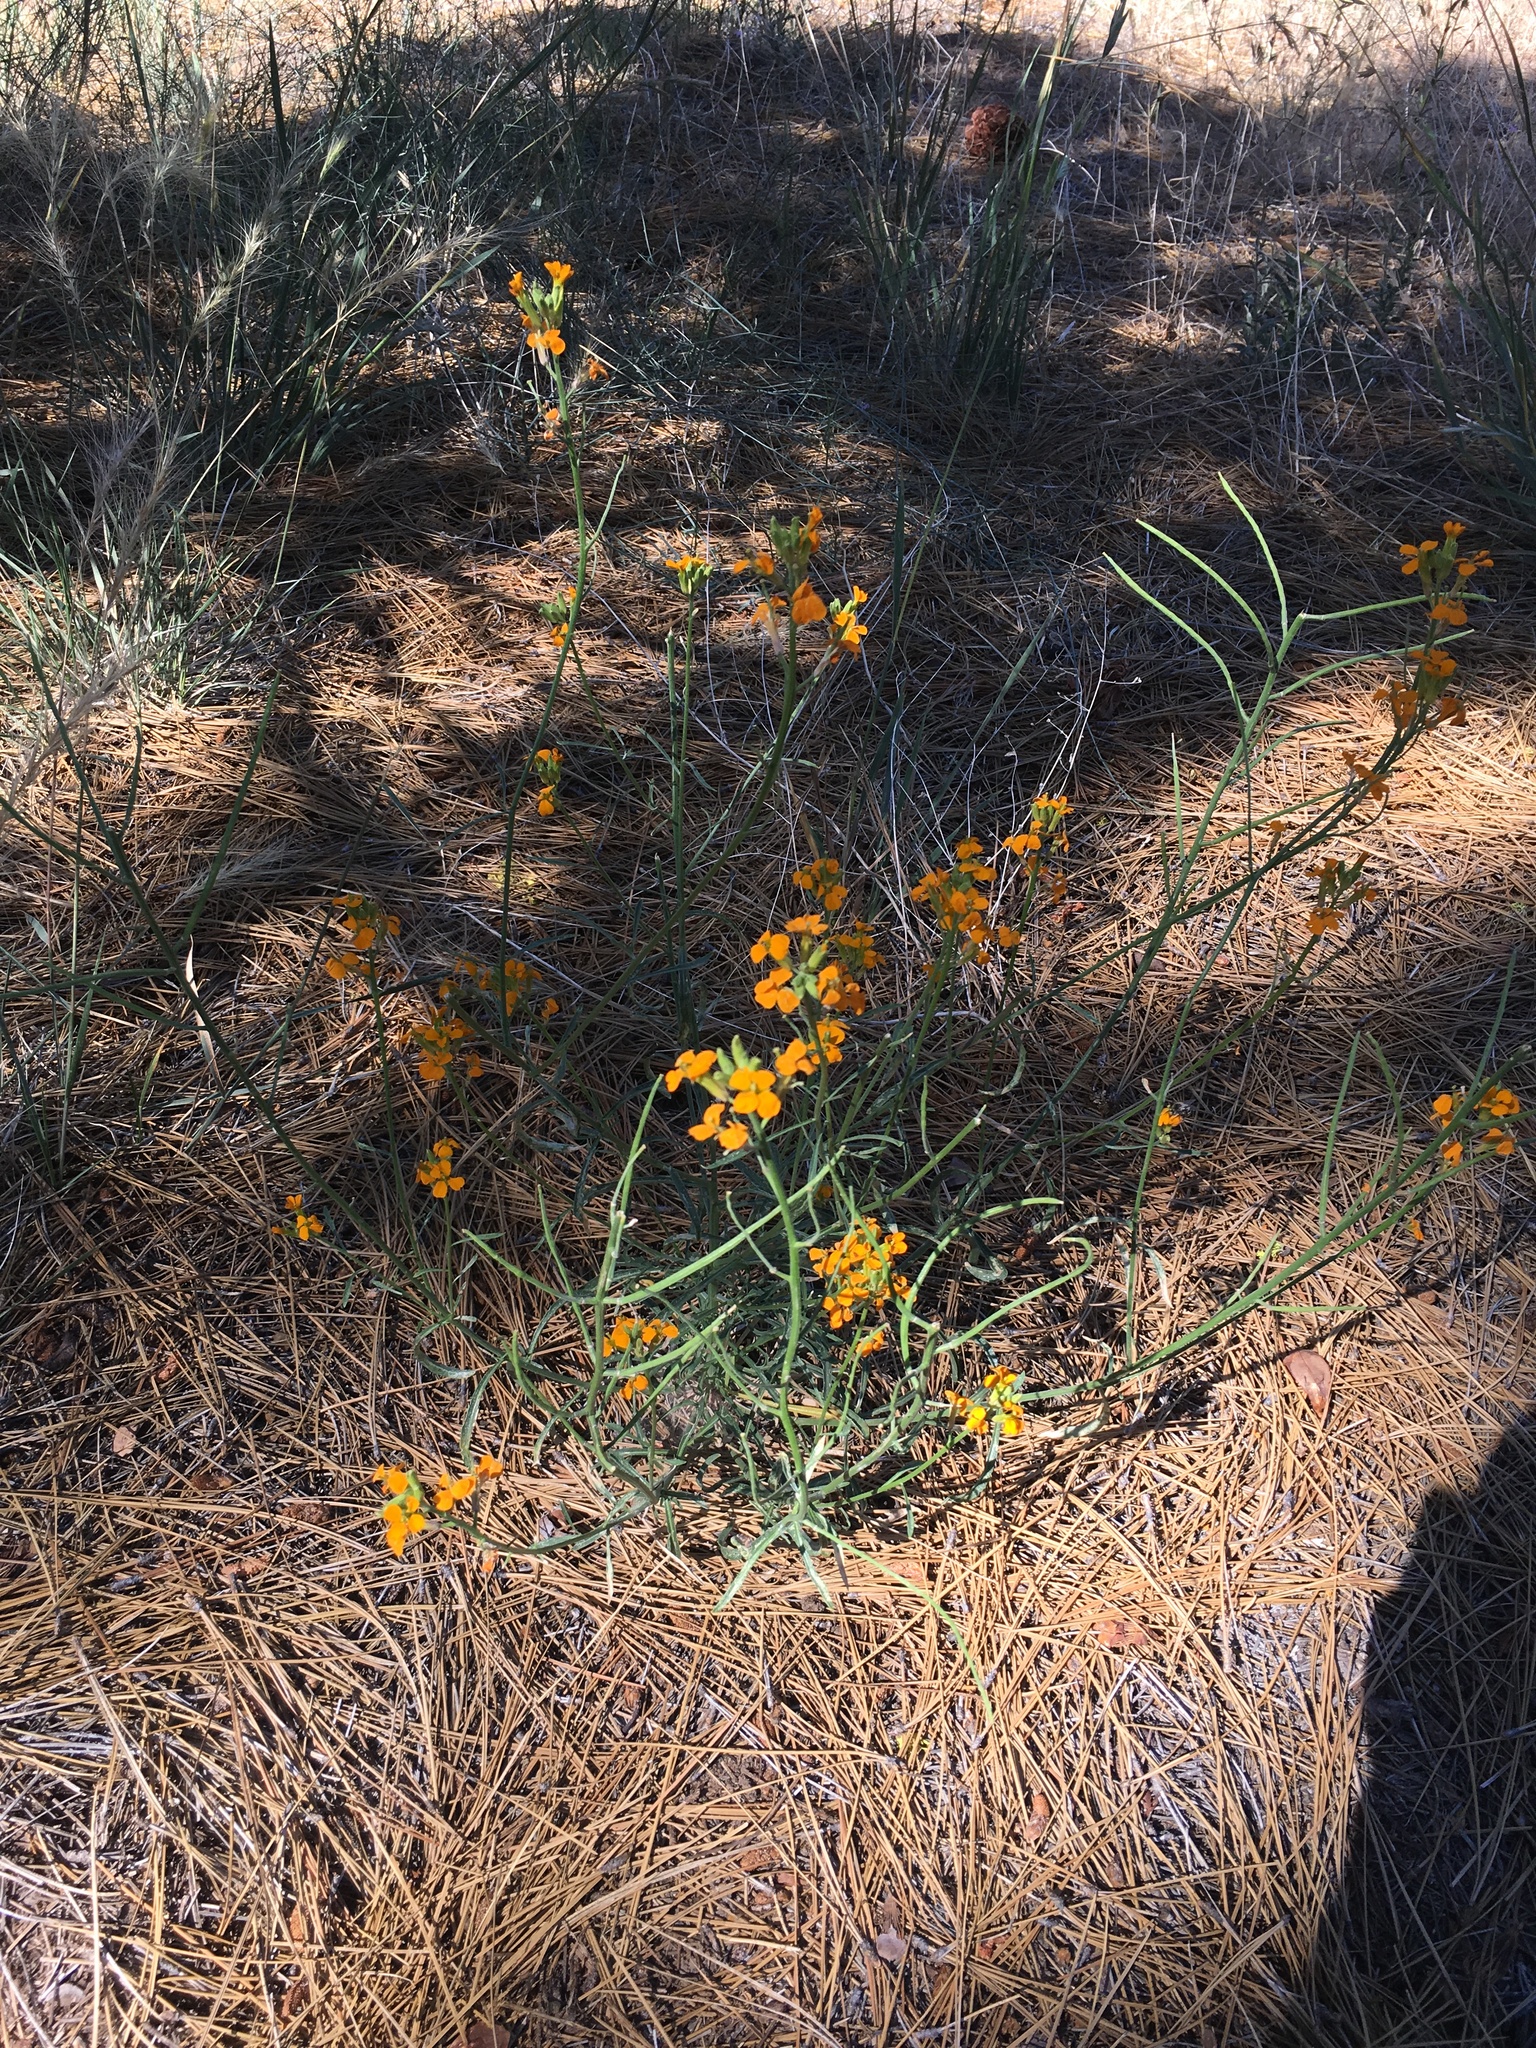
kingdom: Plantae
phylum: Tracheophyta
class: Magnoliopsida
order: Brassicales
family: Brassicaceae
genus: Erysimum
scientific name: Erysimum capitatum
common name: Western wallflower
